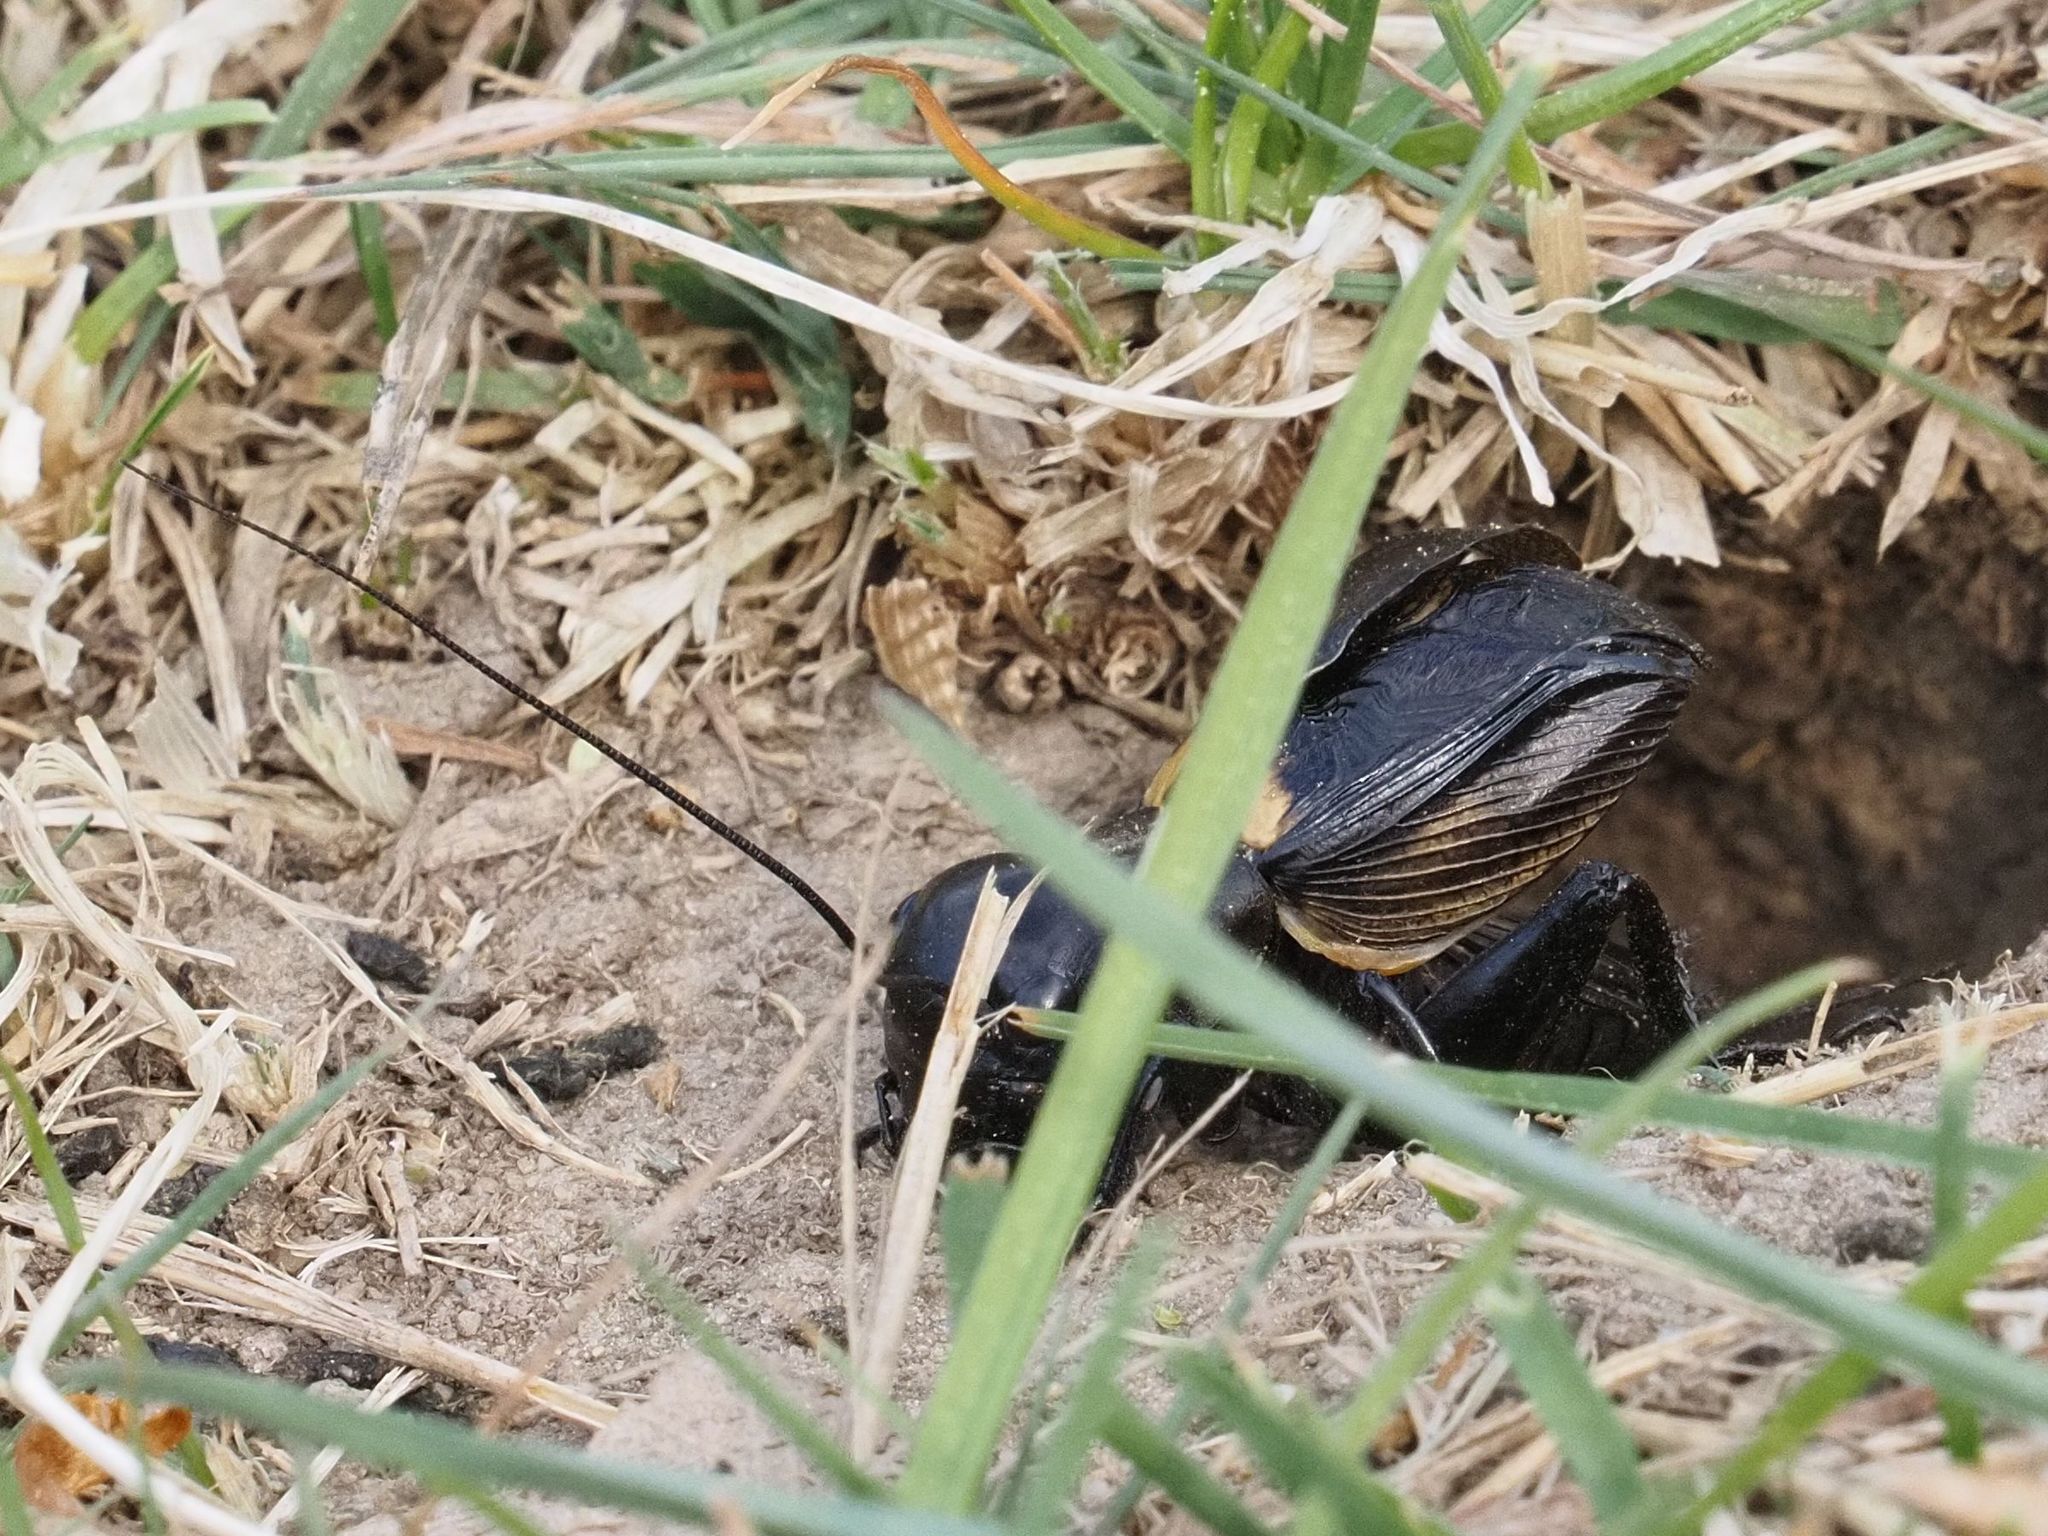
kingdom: Animalia
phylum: Arthropoda
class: Insecta
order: Orthoptera
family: Gryllidae
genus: Gryllus
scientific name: Gryllus campestris
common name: Field cricket
